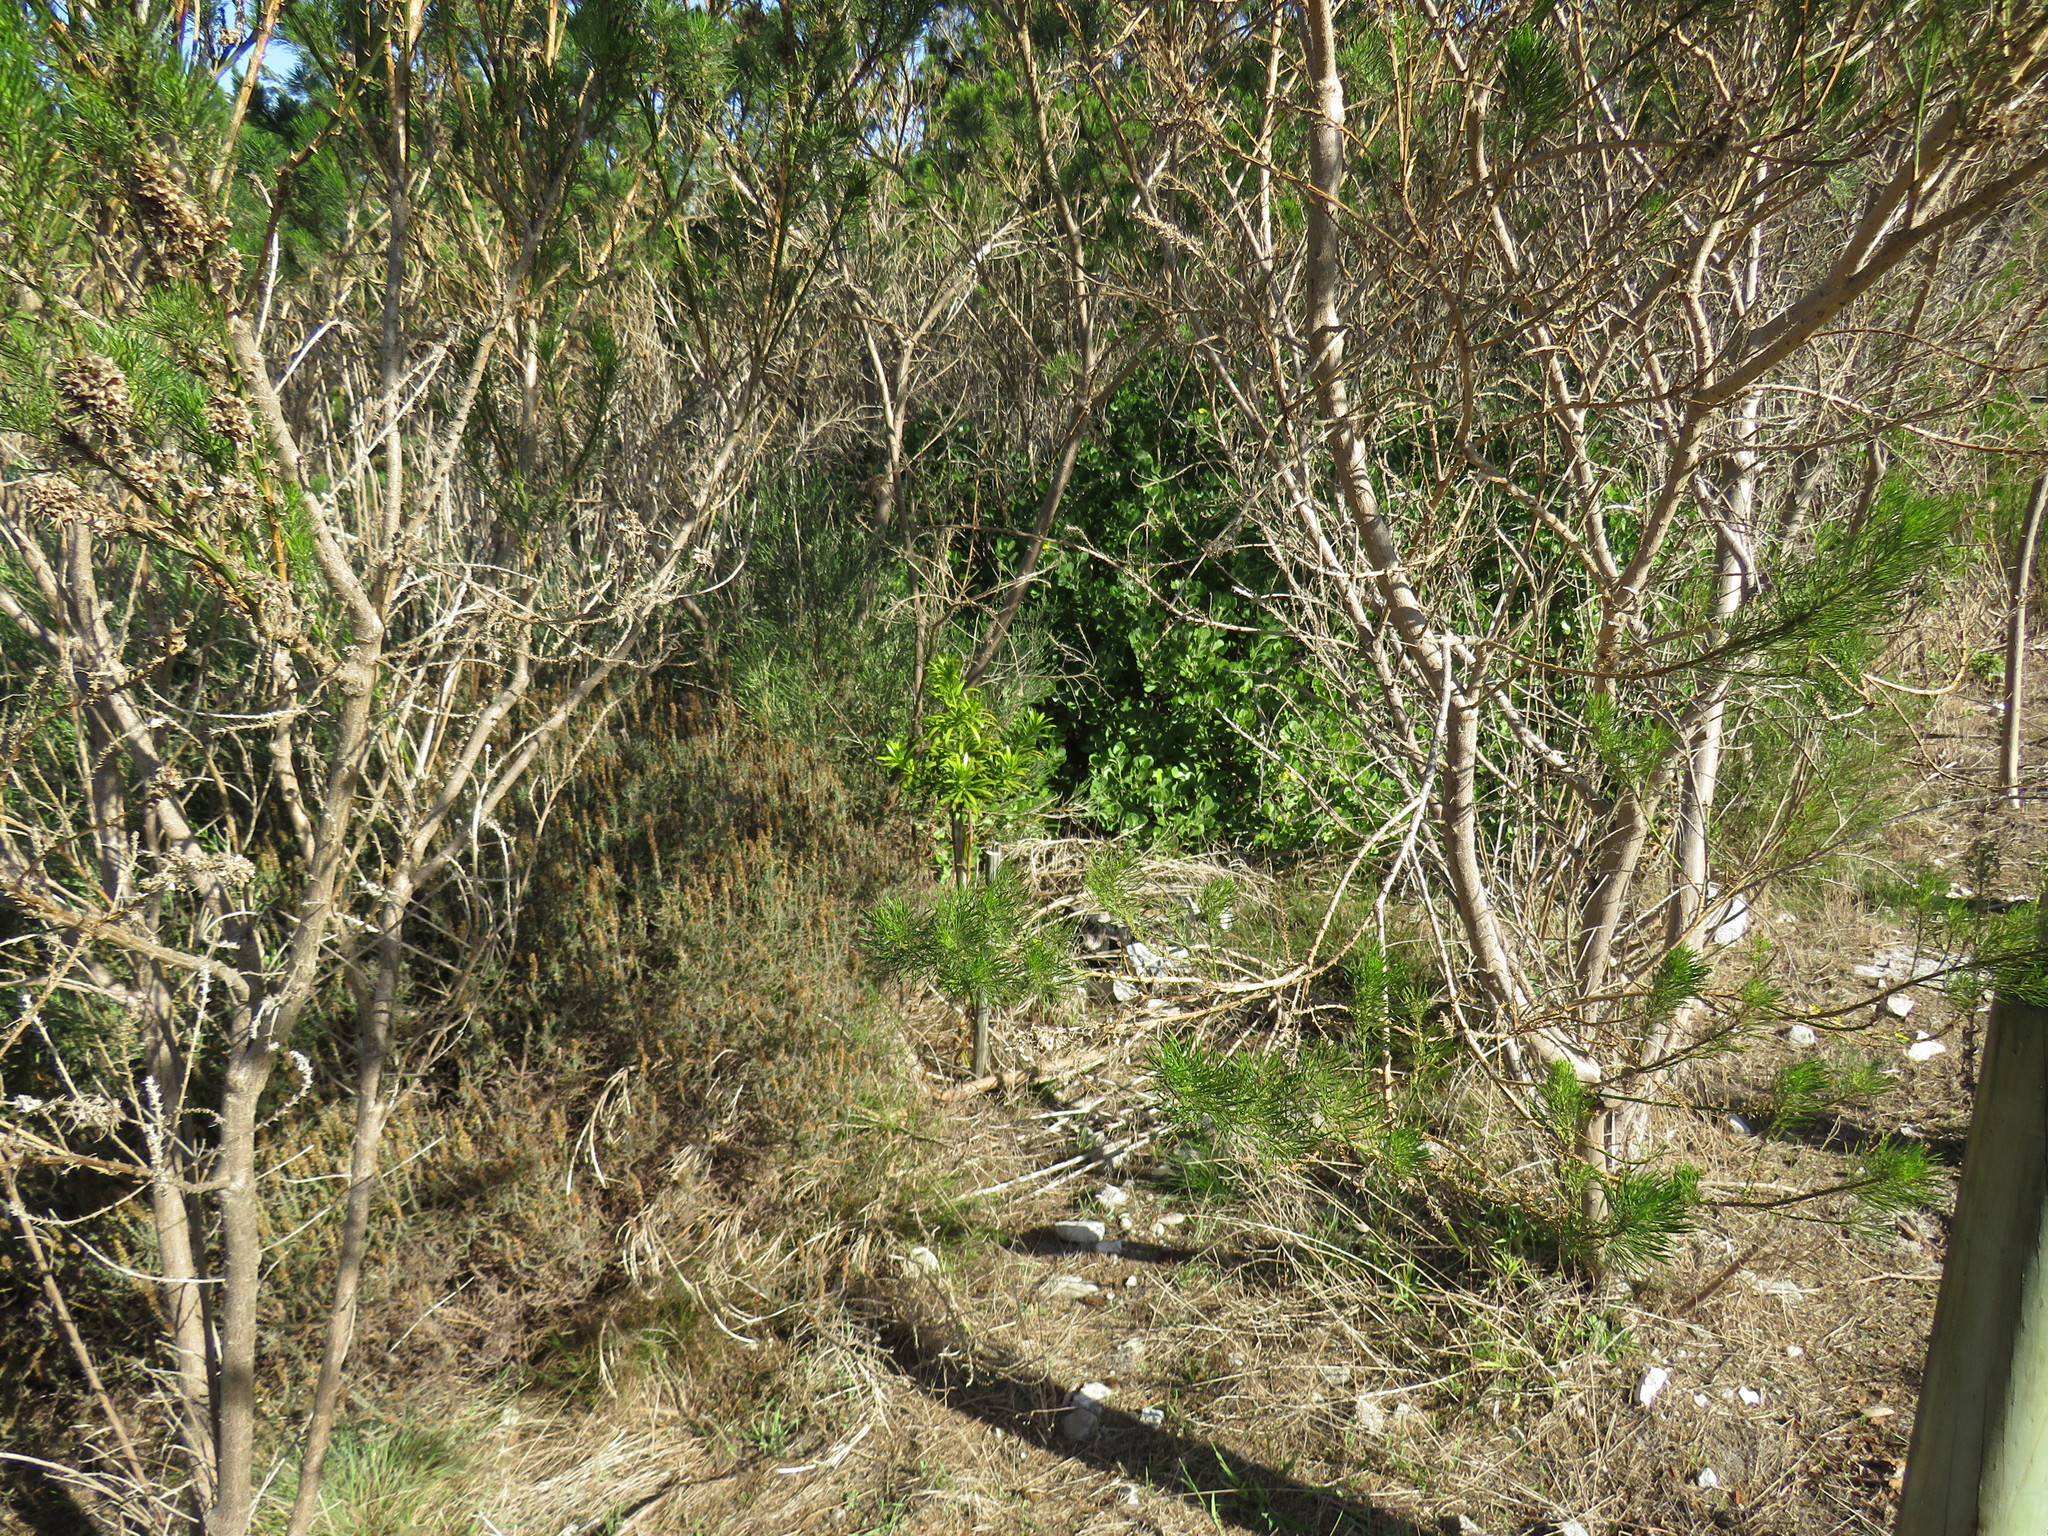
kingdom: Plantae
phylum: Tracheophyta
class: Pinopsida
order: Pinales
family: Podocarpaceae
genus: Podocarpus
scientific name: Podocarpus latifolius
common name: True yellowwood
